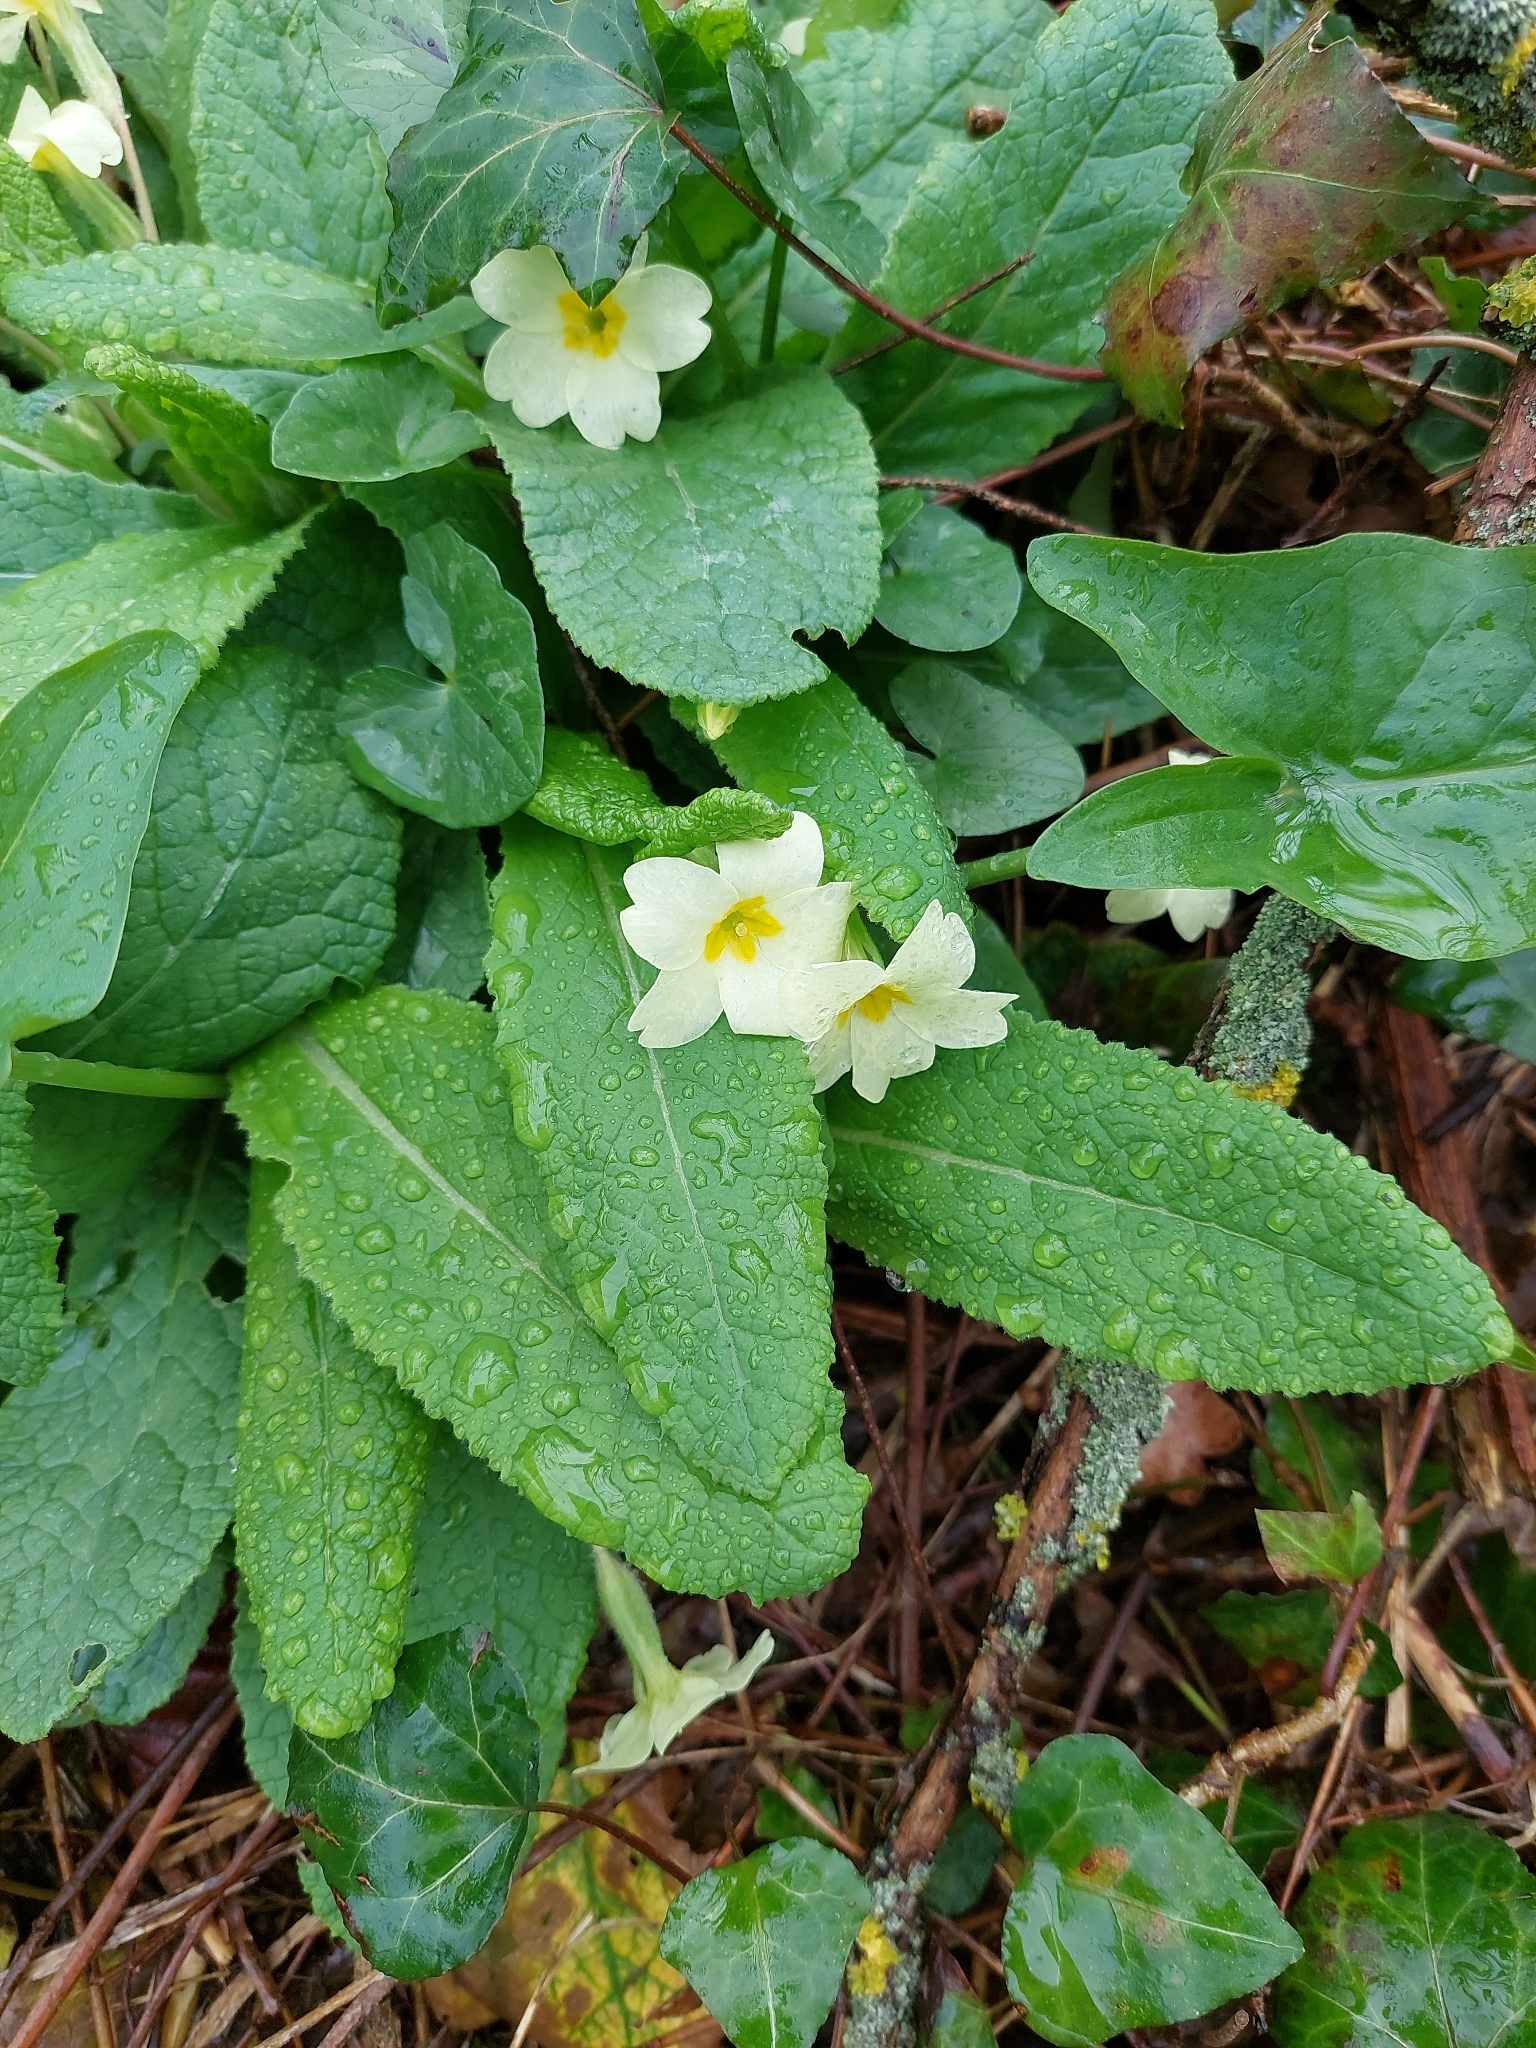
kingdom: Plantae
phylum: Tracheophyta
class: Magnoliopsida
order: Ericales
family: Primulaceae
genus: Primula
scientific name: Primula vulgaris
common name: Primrose
